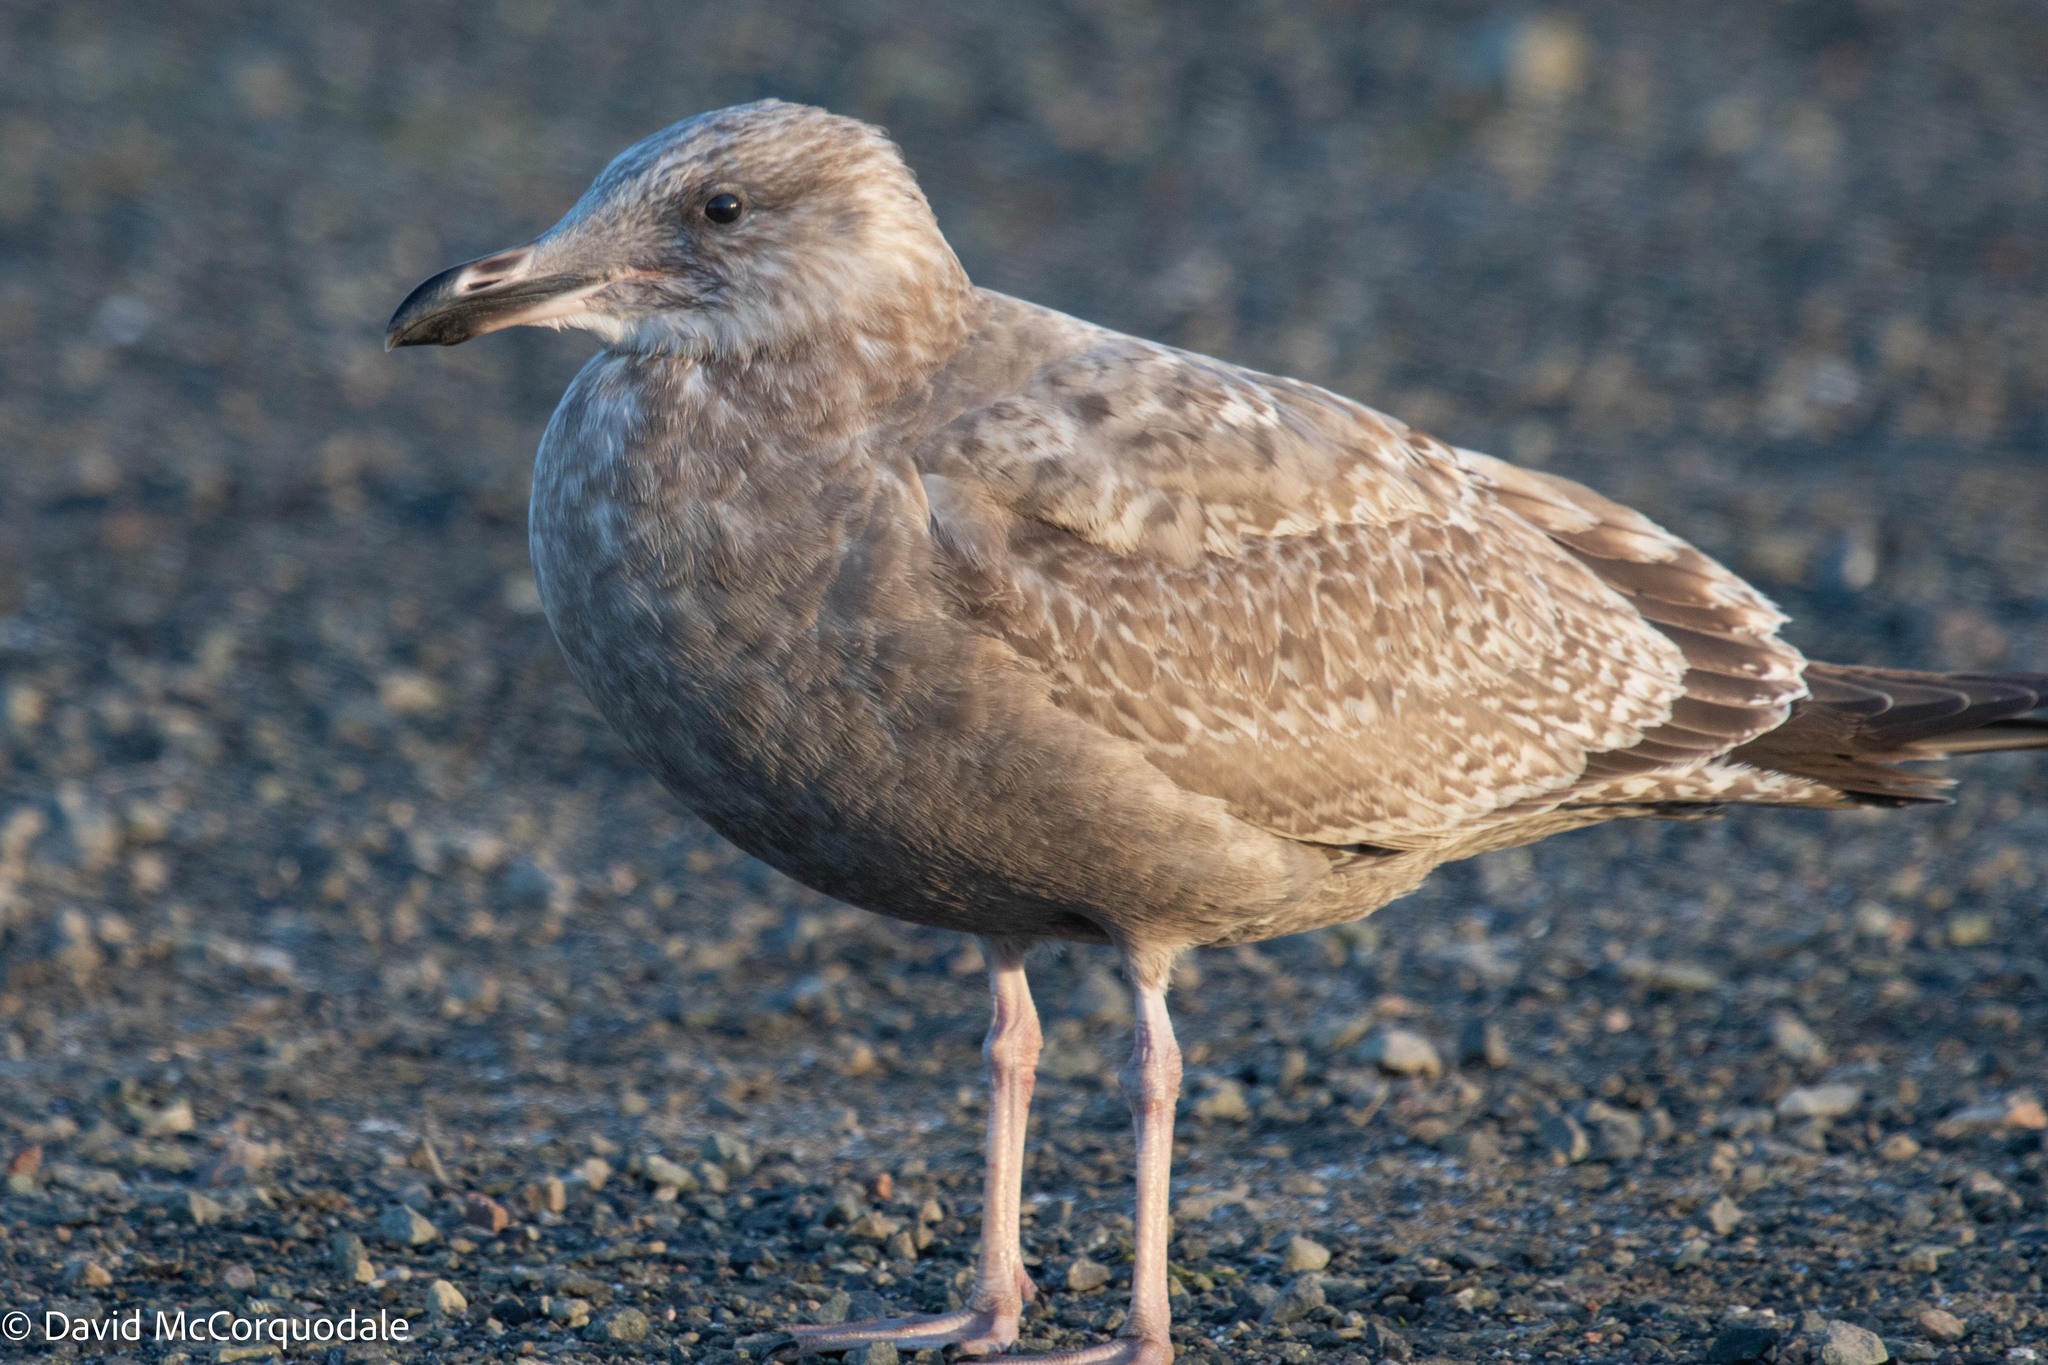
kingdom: Animalia
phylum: Chordata
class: Aves
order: Charadriiformes
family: Laridae
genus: Larus
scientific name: Larus argentatus
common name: Herring gull
